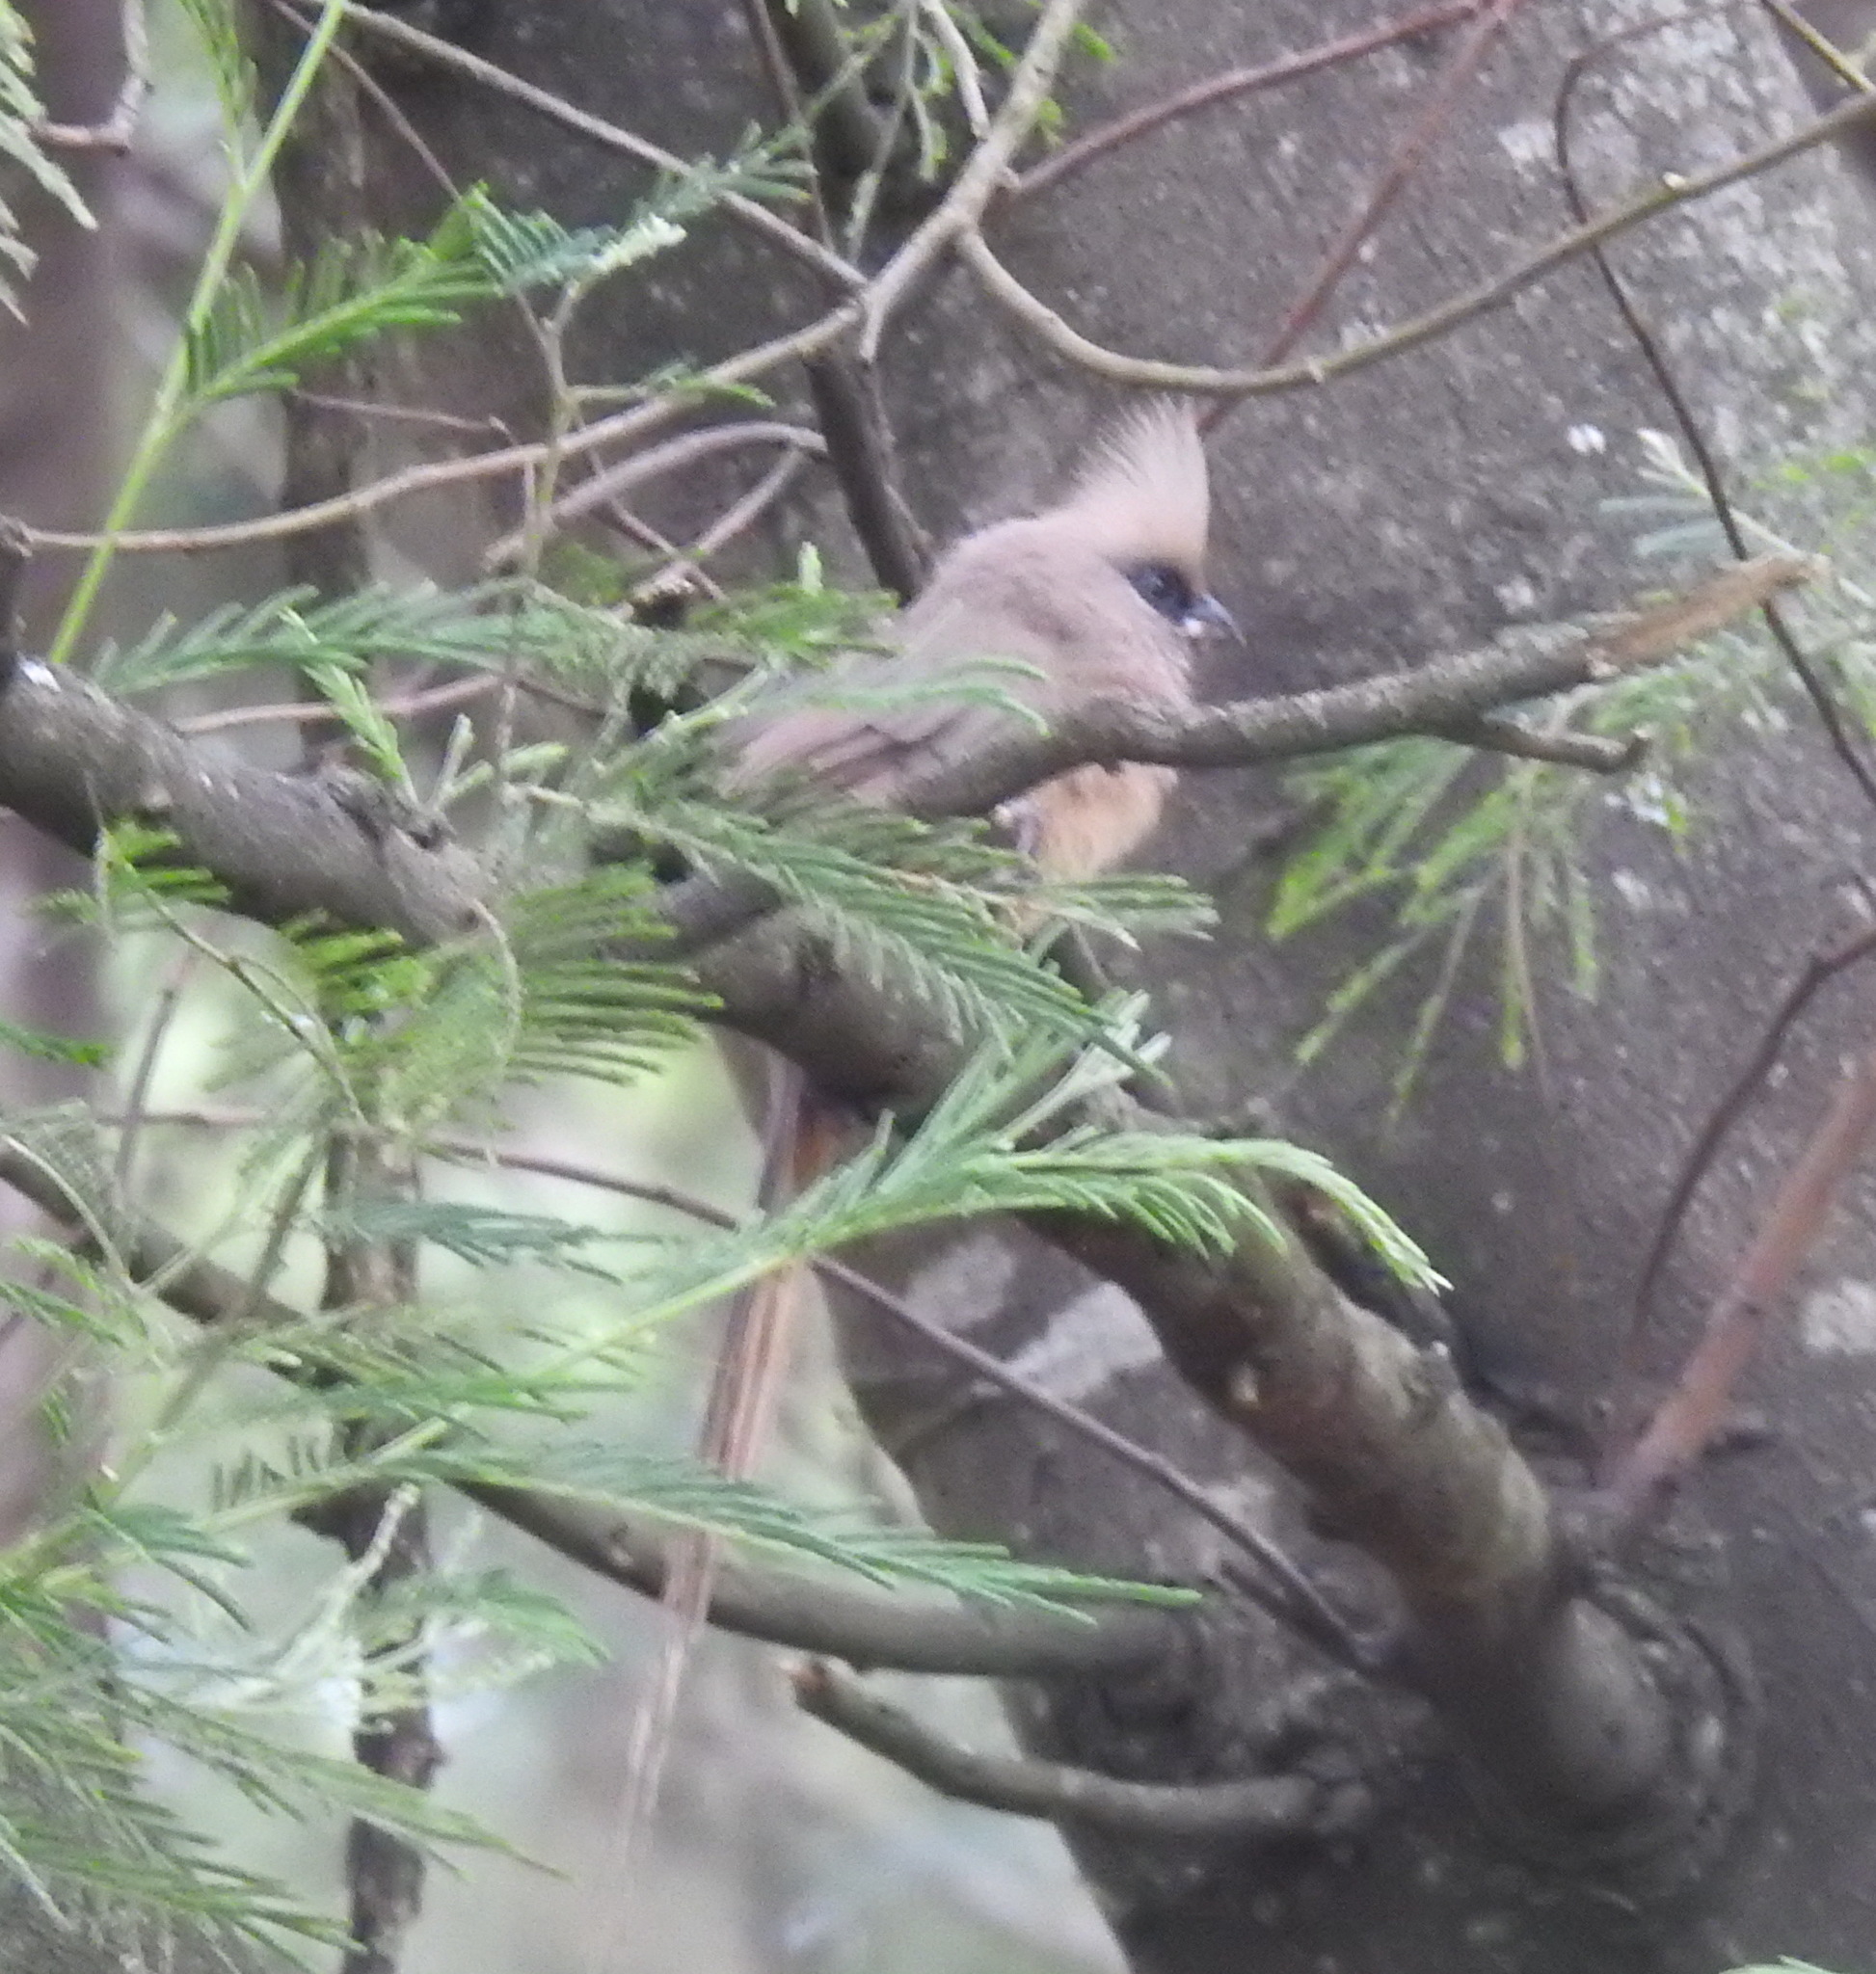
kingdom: Animalia
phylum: Chordata
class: Aves
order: Coliiformes
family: Coliidae
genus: Colius
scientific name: Colius striatus
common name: Speckled mousebird
